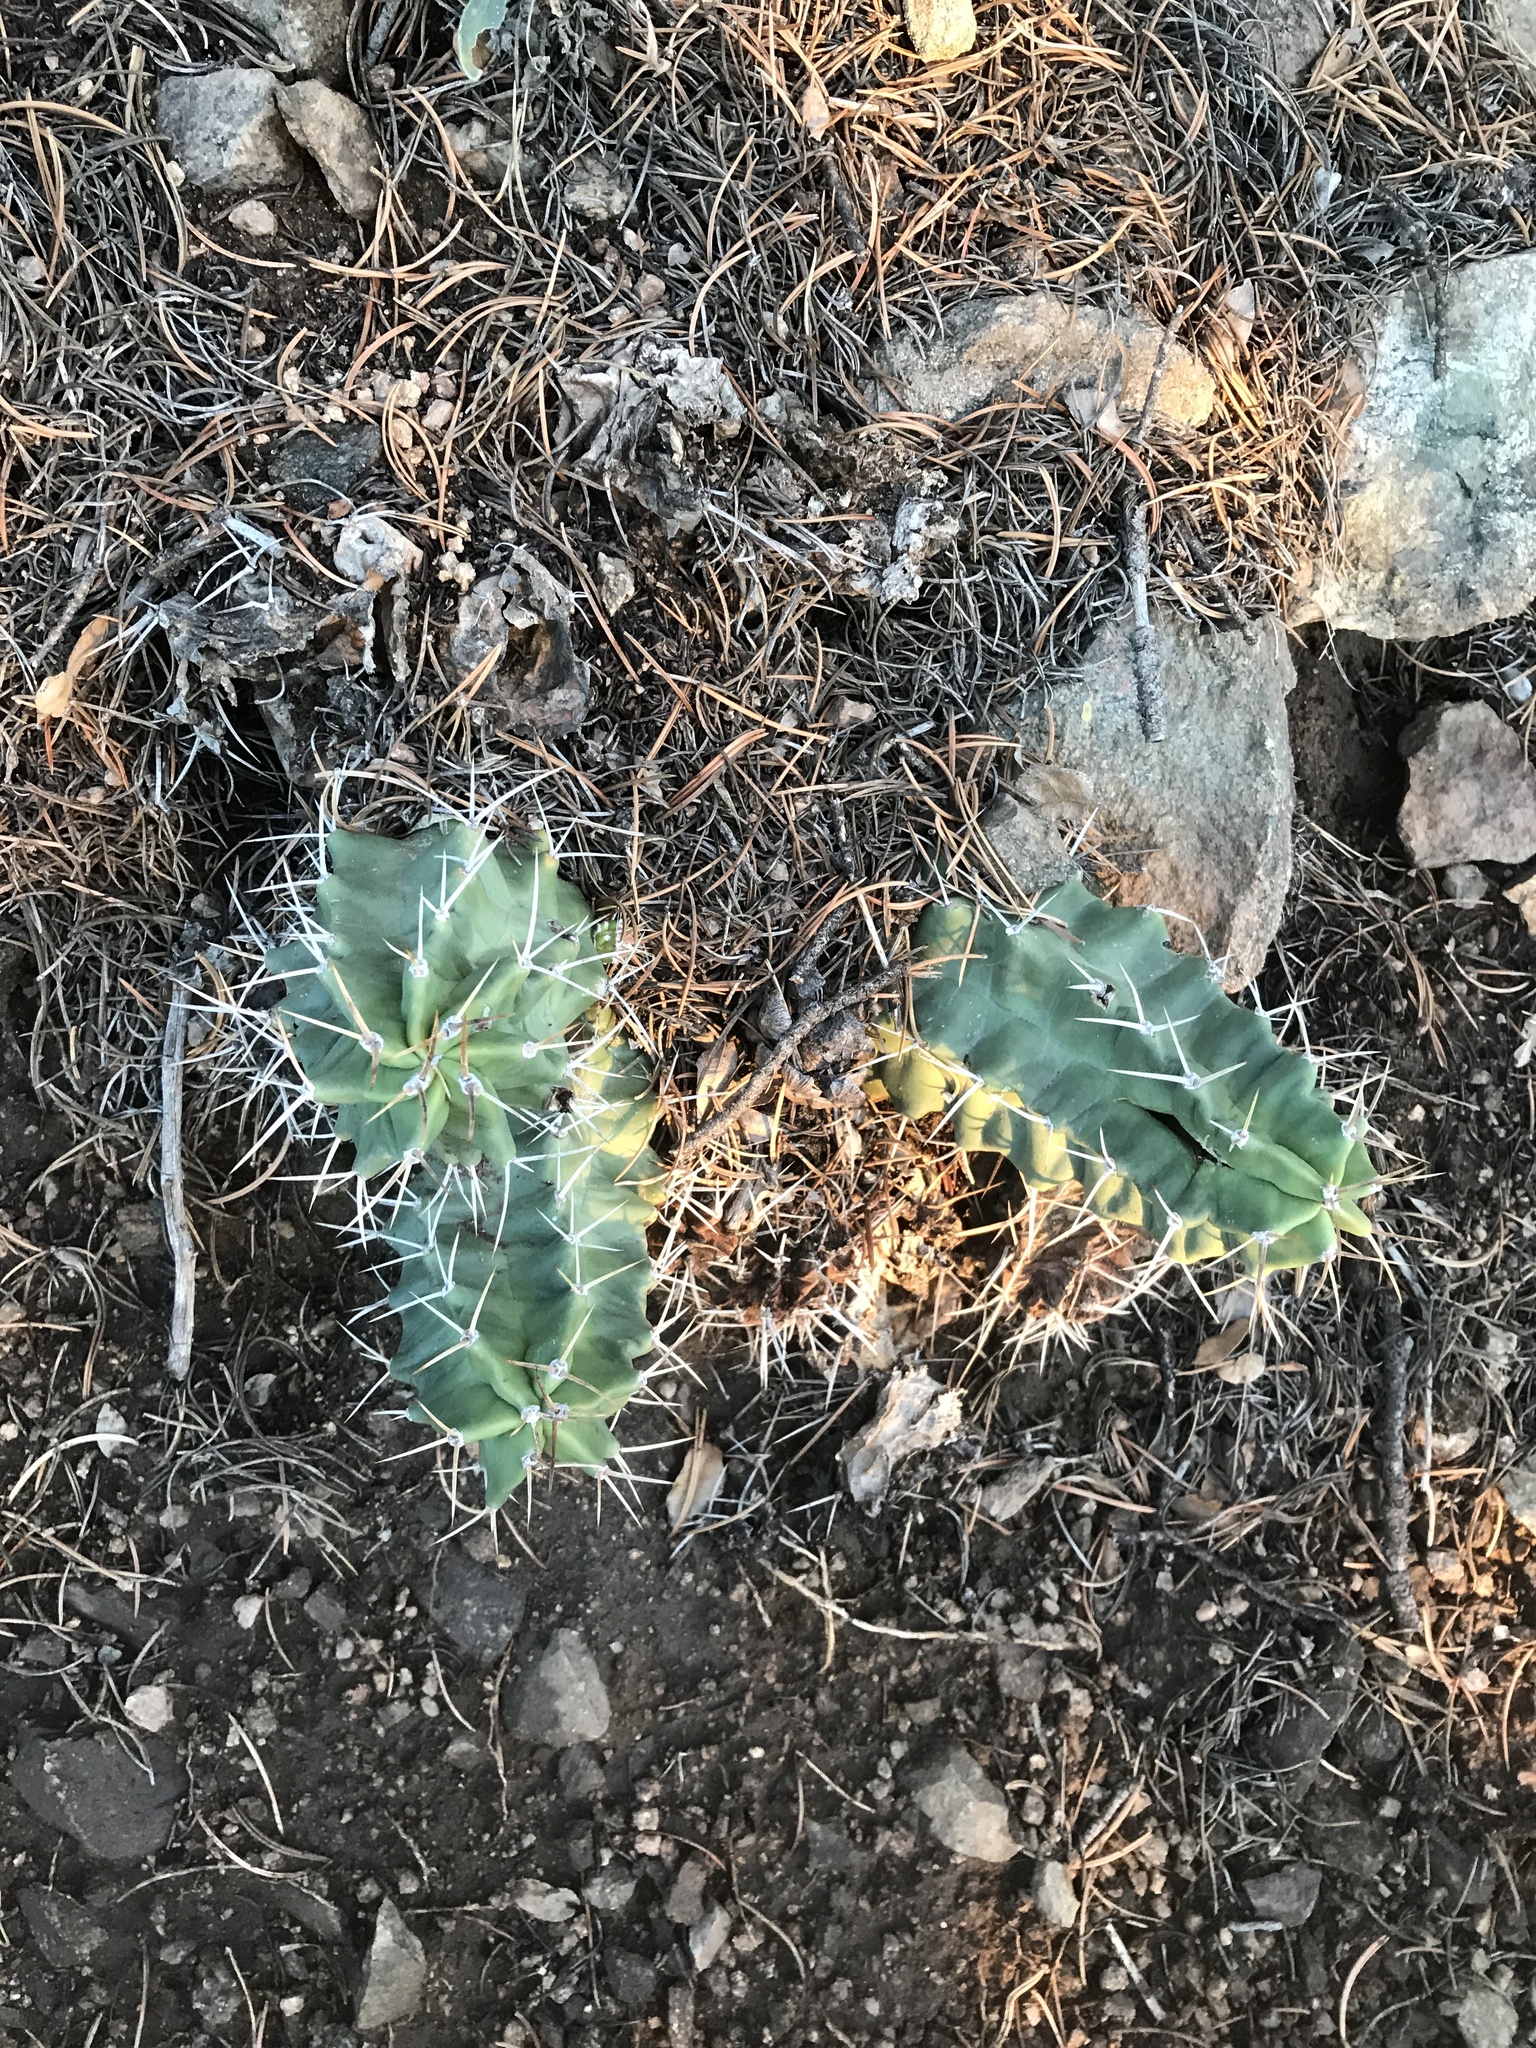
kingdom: Plantae
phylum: Tracheophyta
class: Magnoliopsida
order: Caryophyllales
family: Cactaceae
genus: Echinocereus
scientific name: Echinocereus triglochidiatus
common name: Claretcup hedgehog
